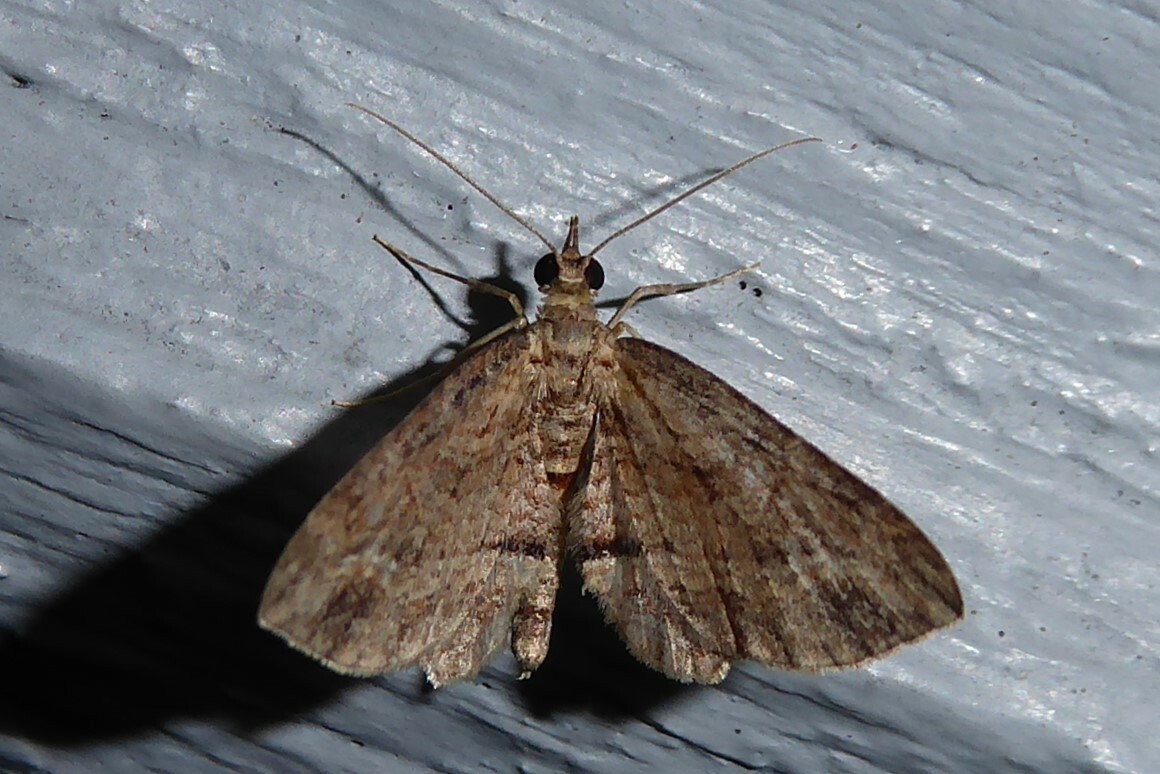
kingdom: Animalia
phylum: Arthropoda
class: Insecta
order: Lepidoptera
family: Geometridae
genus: Chloroclystis
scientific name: Chloroclystis filata
